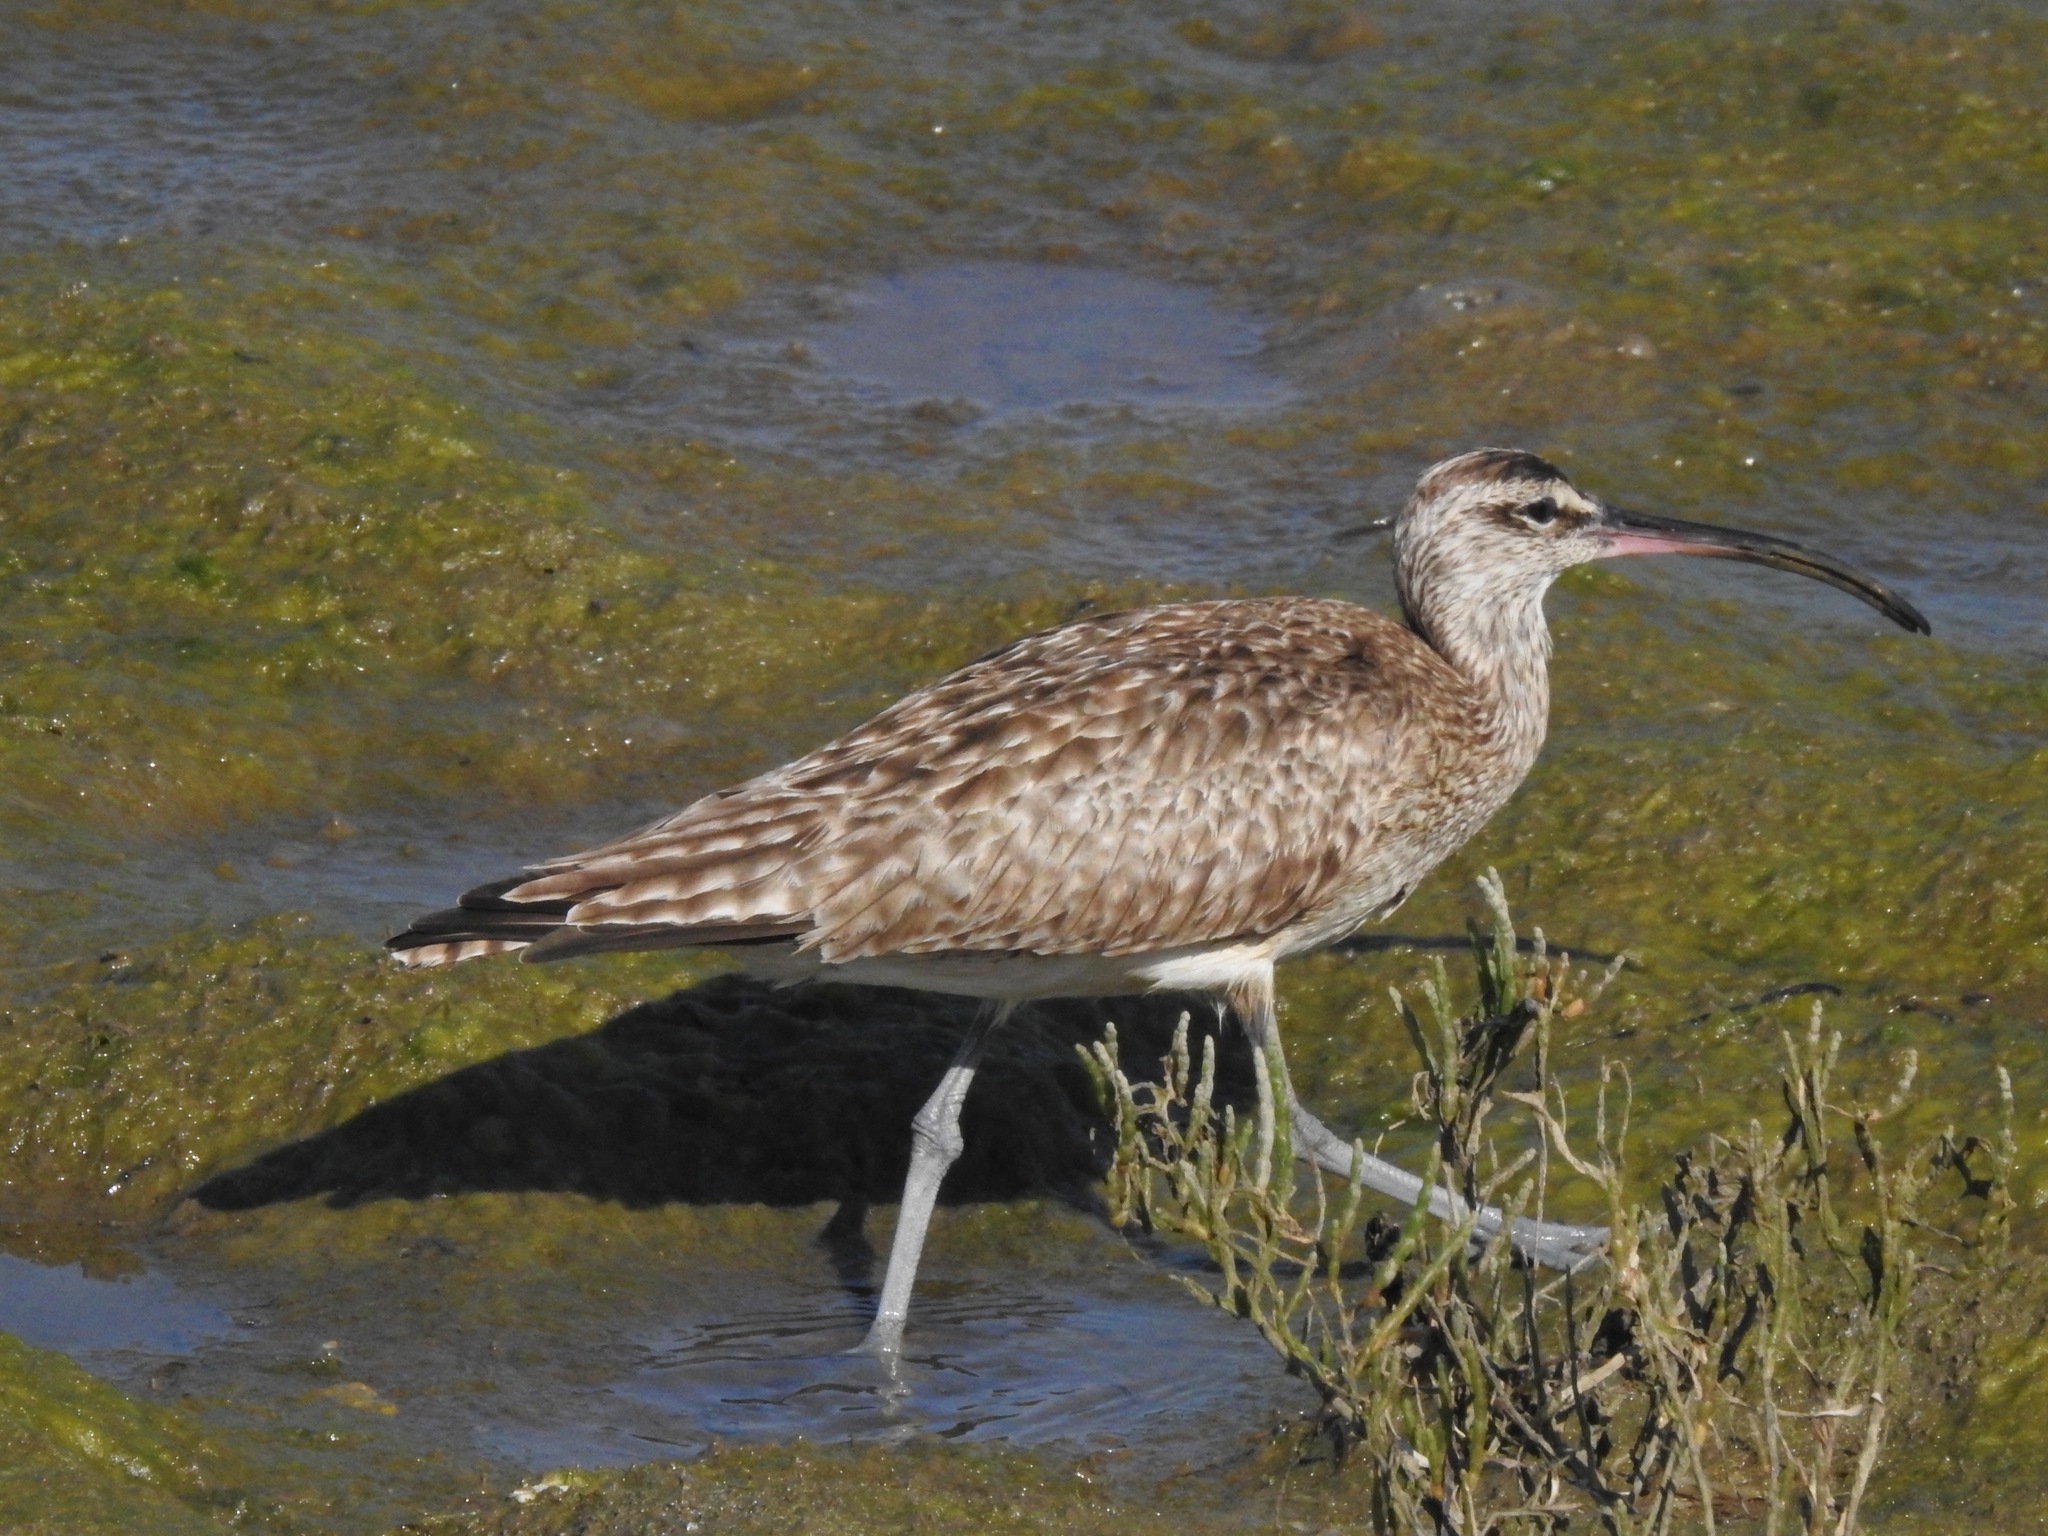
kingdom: Animalia
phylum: Chordata
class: Aves
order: Charadriiformes
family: Scolopacidae
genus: Numenius
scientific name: Numenius phaeopus
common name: Whimbrel
